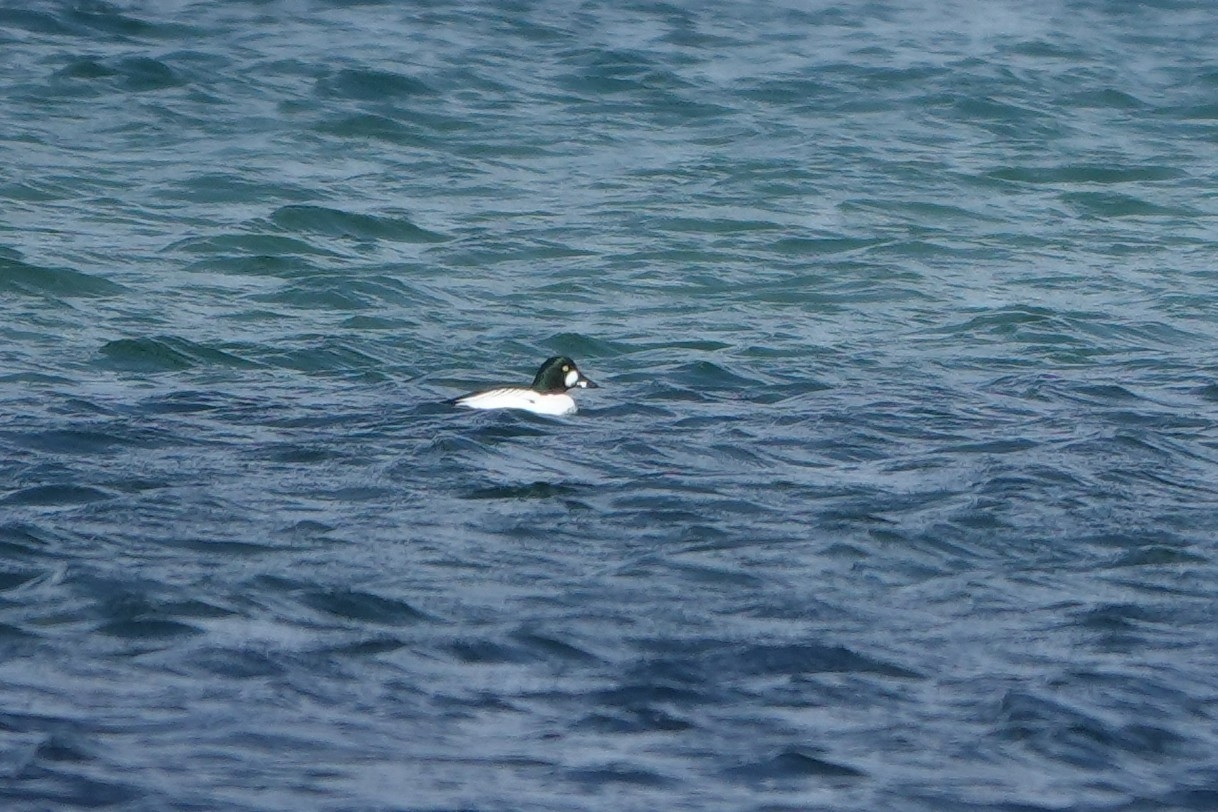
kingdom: Animalia
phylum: Chordata
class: Aves
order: Anseriformes
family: Anatidae
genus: Bucephala
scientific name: Bucephala clangula
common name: Common goldeneye
